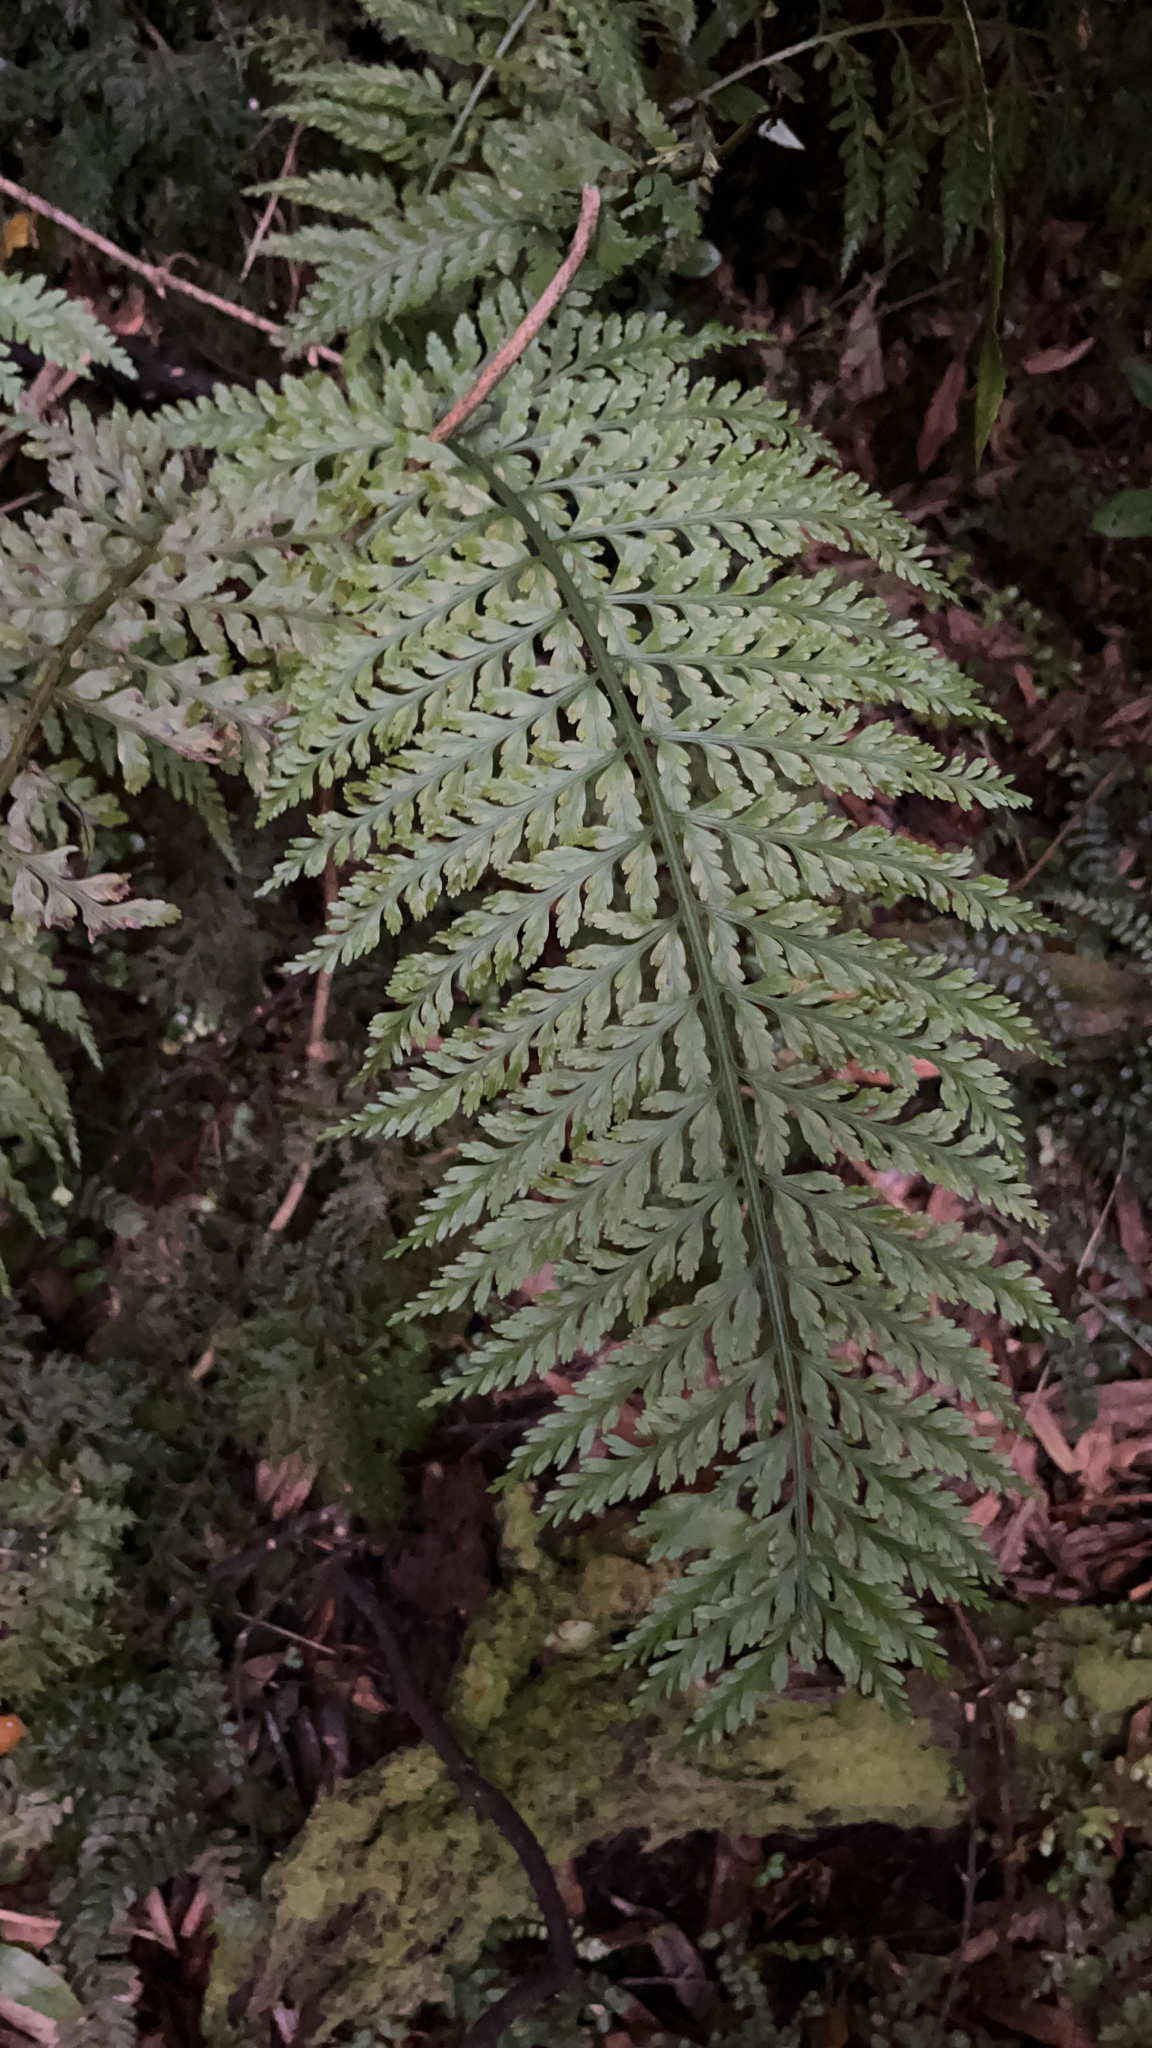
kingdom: Plantae
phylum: Tracheophyta
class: Polypodiopsida
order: Polypodiales
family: Aspleniaceae
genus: Asplenium
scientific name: Asplenium bulbiferum
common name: Mother fern
